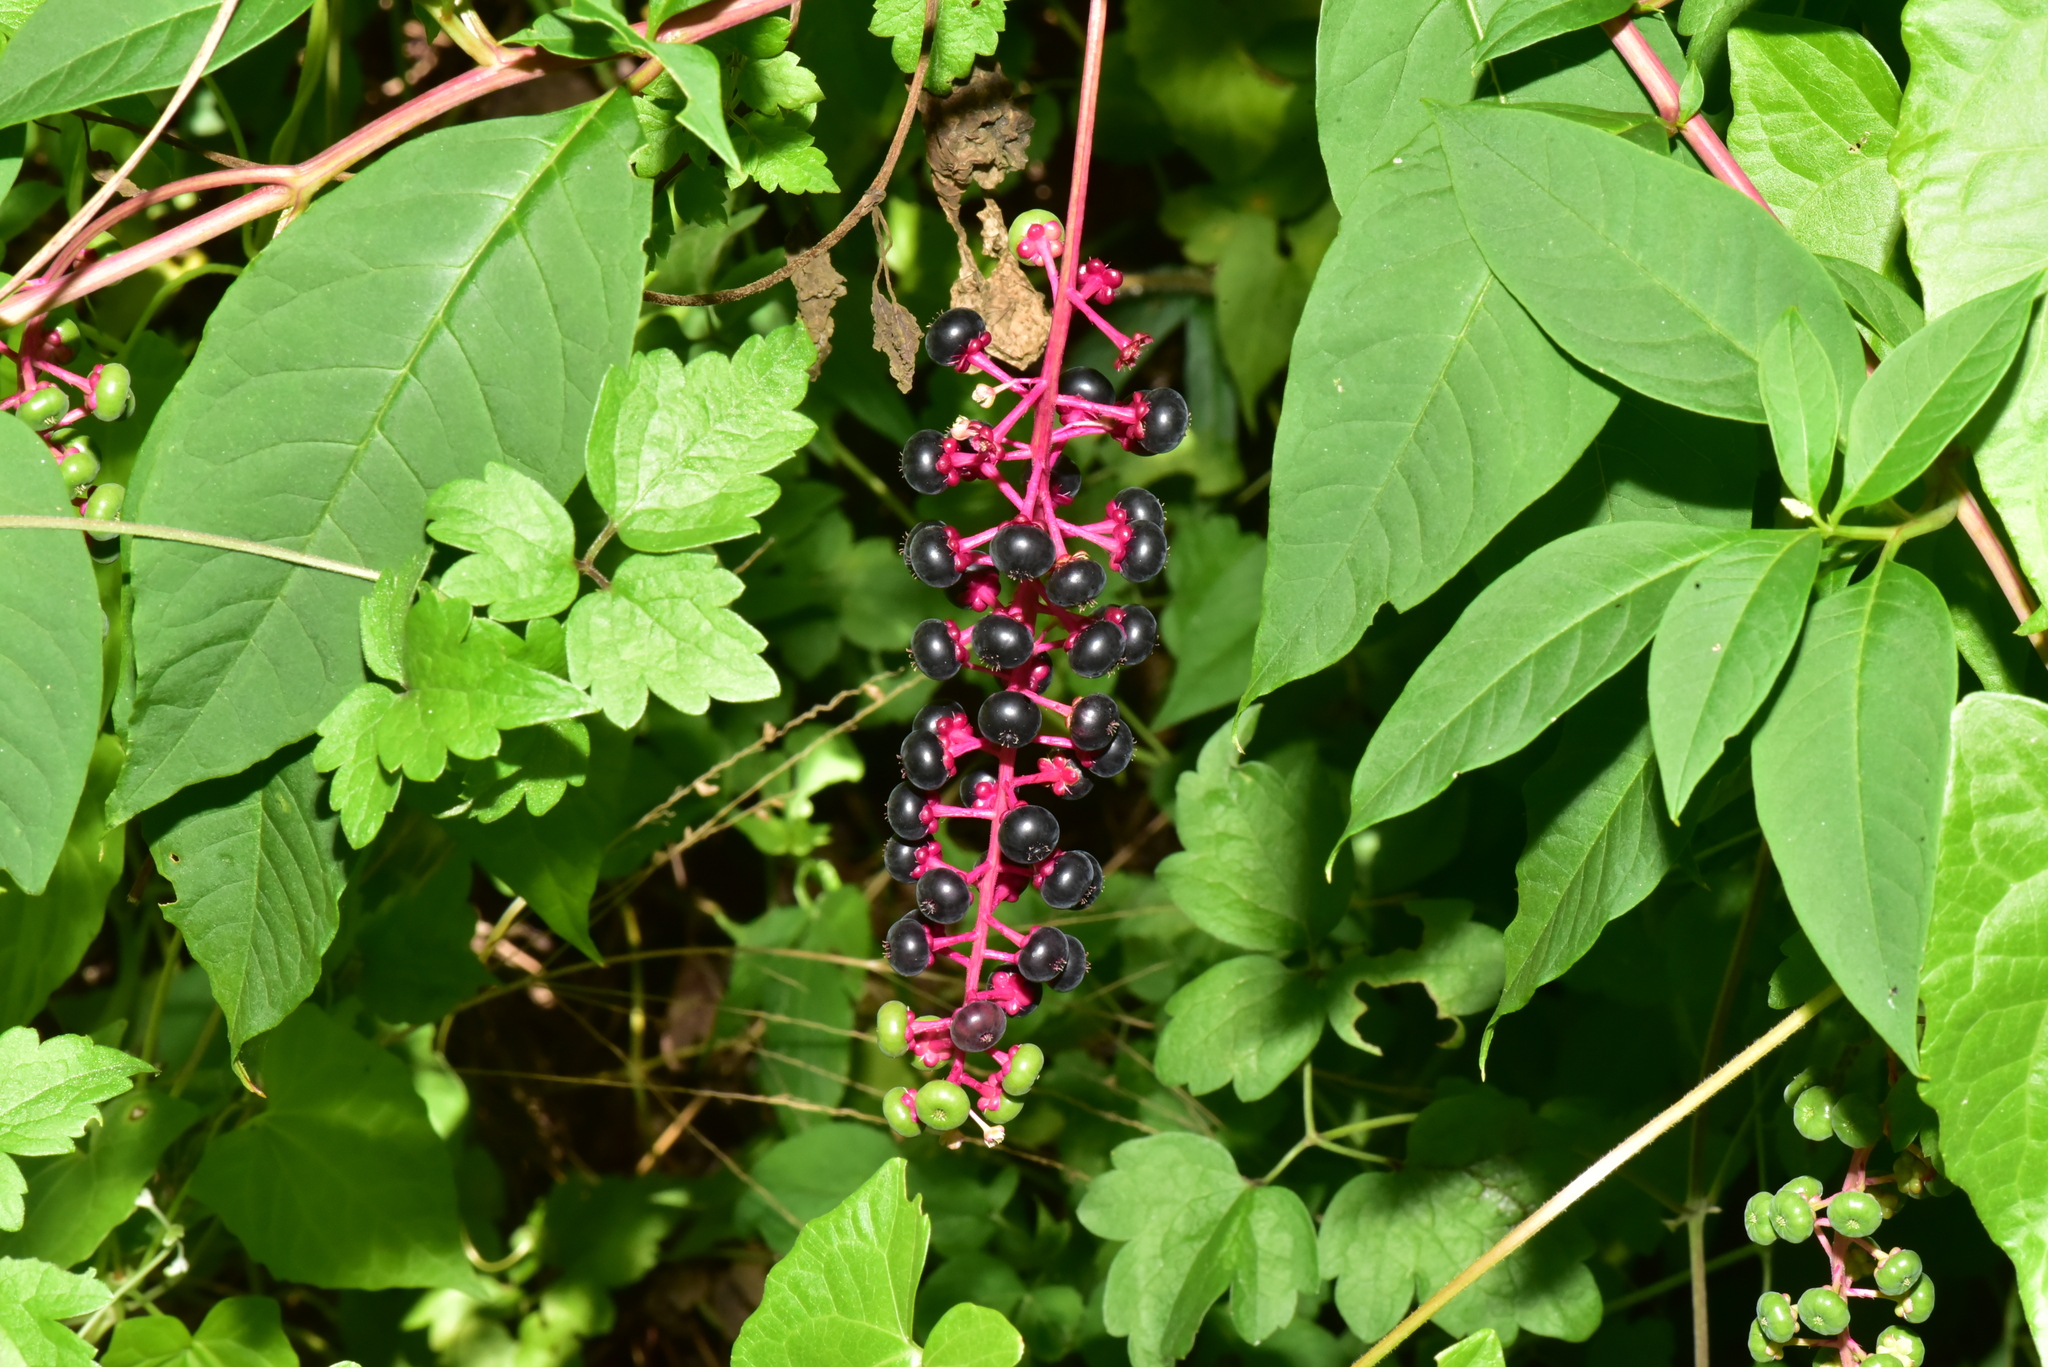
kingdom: Plantae
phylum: Tracheophyta
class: Magnoliopsida
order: Caryophyllales
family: Phytolaccaceae
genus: Phytolacca
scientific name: Phytolacca americana
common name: American pokeweed
